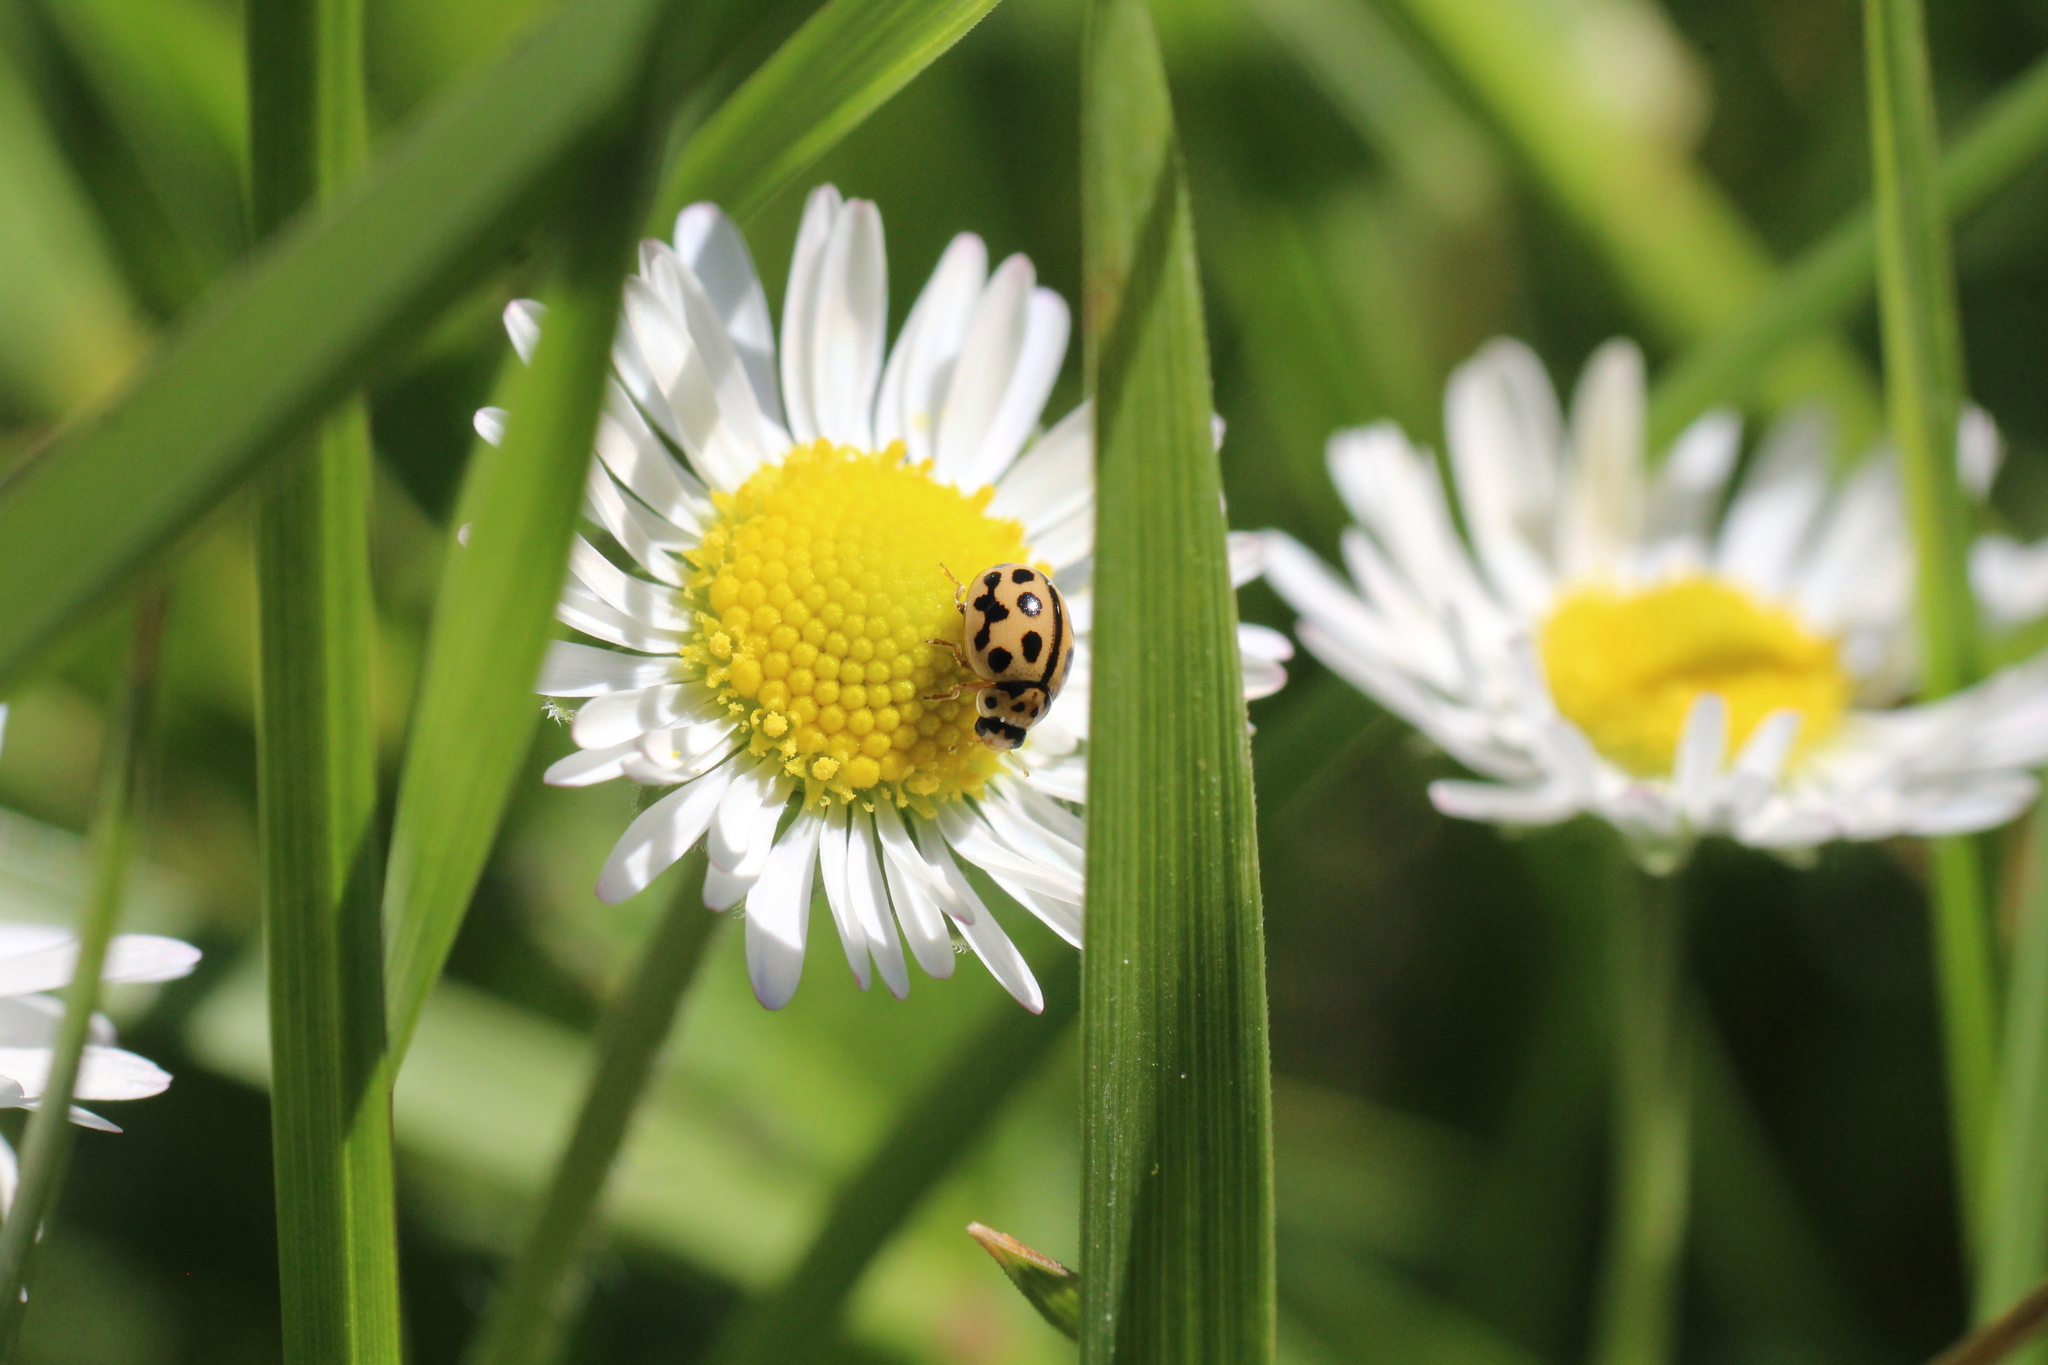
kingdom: Animalia
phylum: Arthropoda
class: Insecta
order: Coleoptera
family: Coccinellidae
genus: Tytthaspis
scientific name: Tytthaspis sedecimpunctata
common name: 16-spot ladybird
